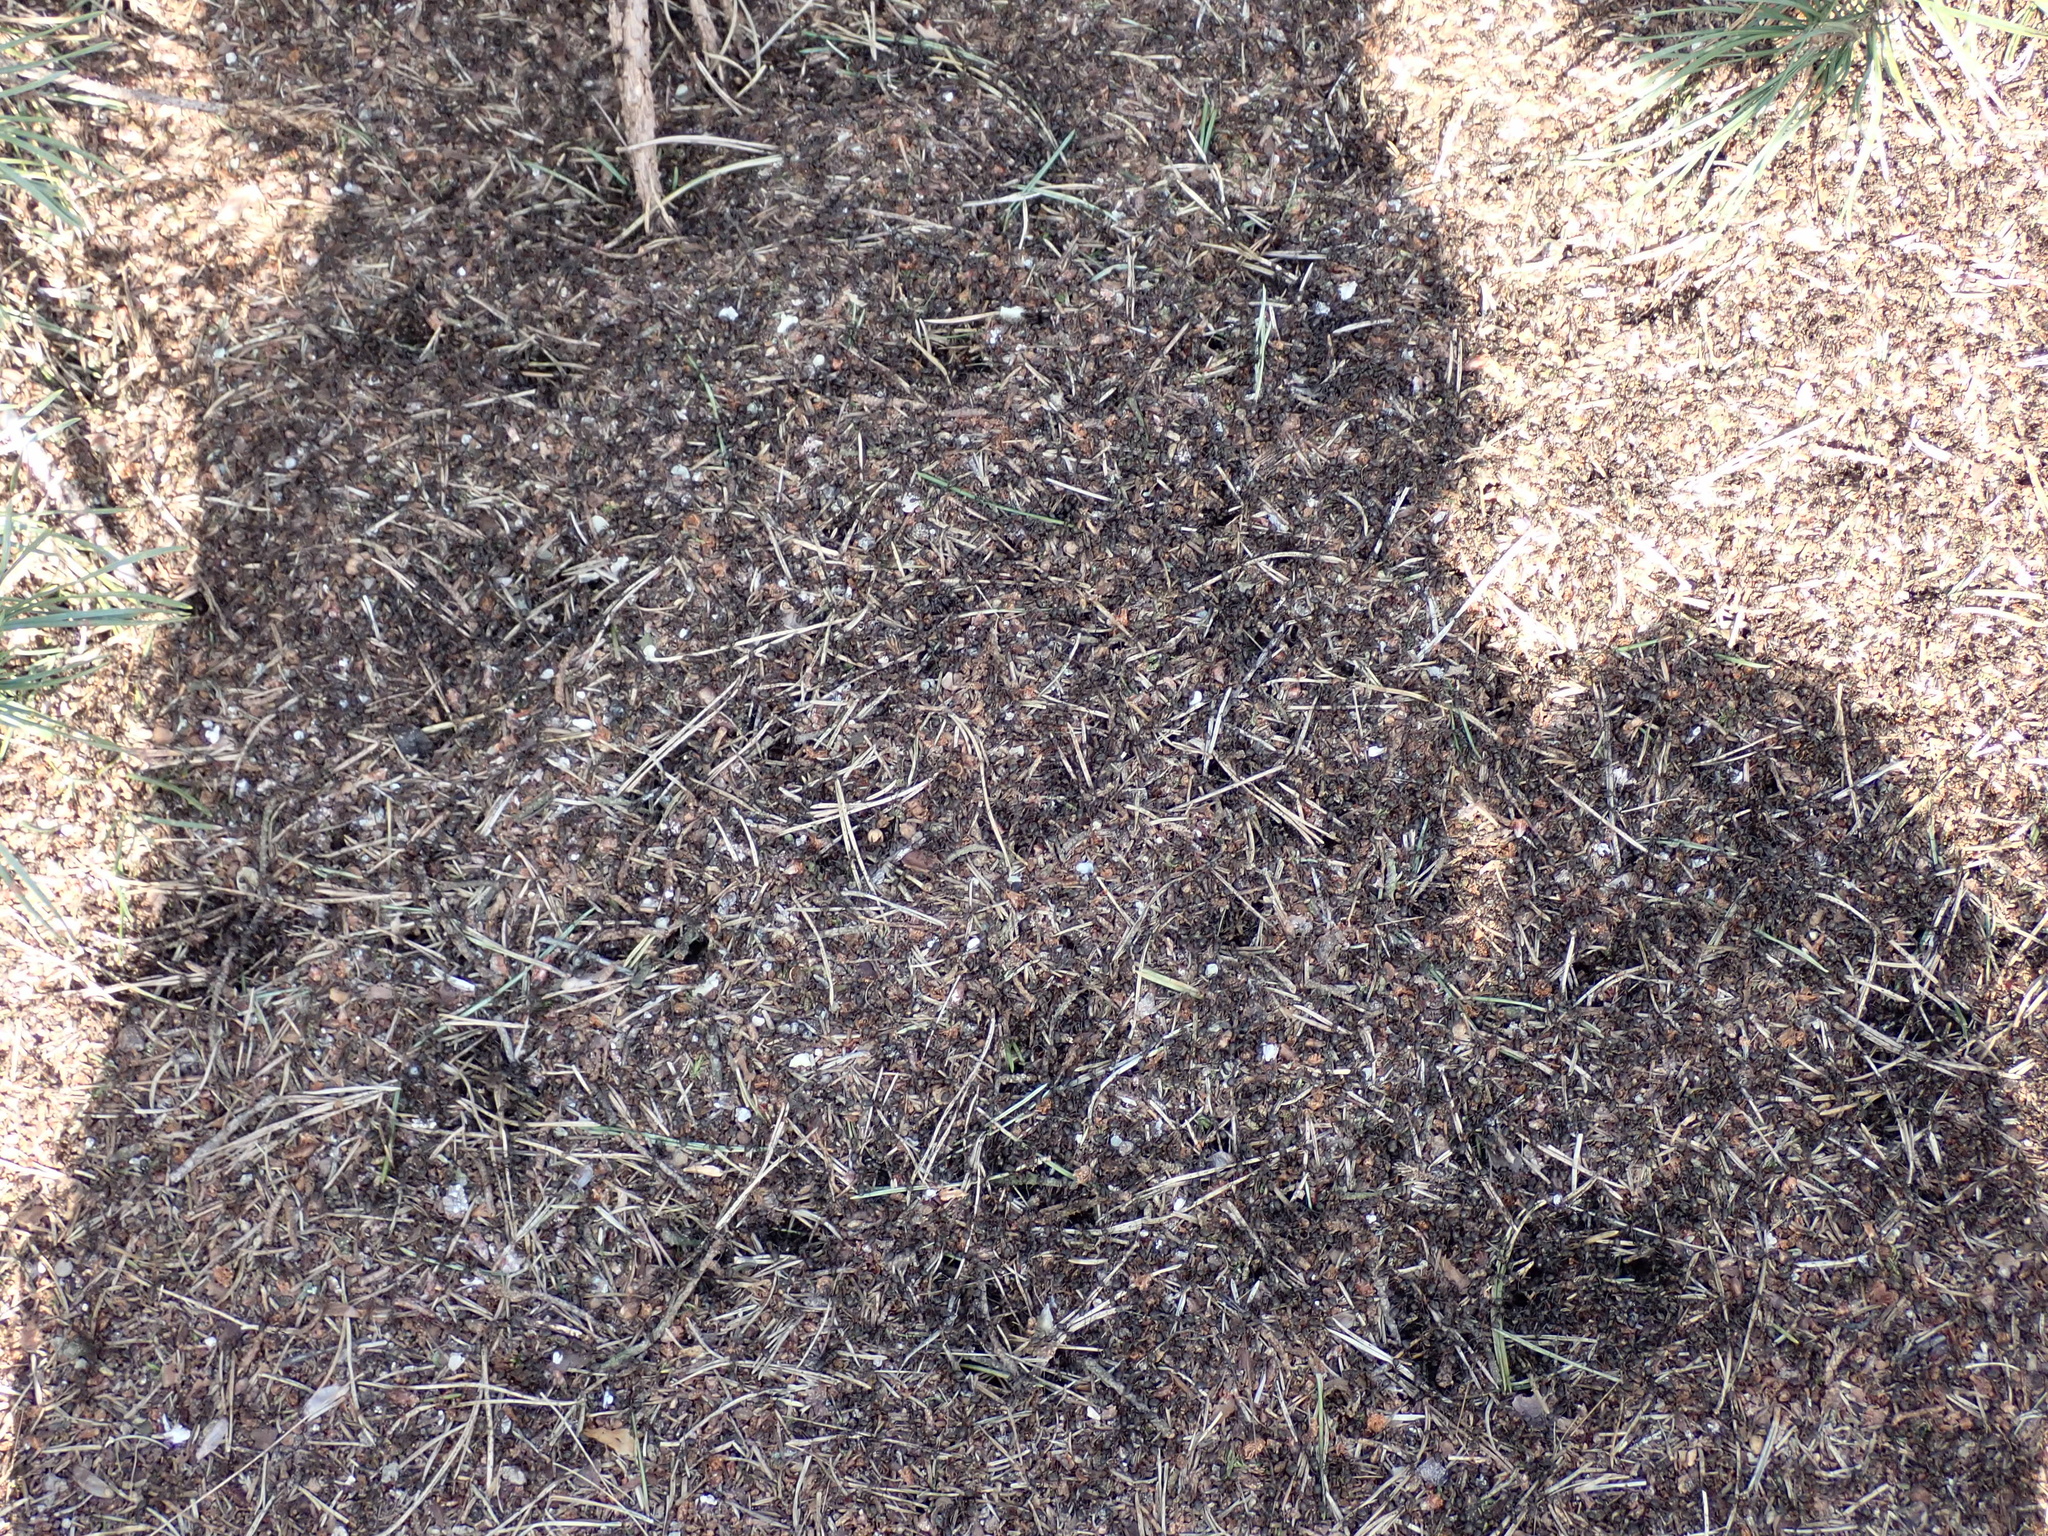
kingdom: Animalia
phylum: Arthropoda
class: Insecta
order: Hymenoptera
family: Formicidae
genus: Formica
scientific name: Formica pratensis
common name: European red wood ant
